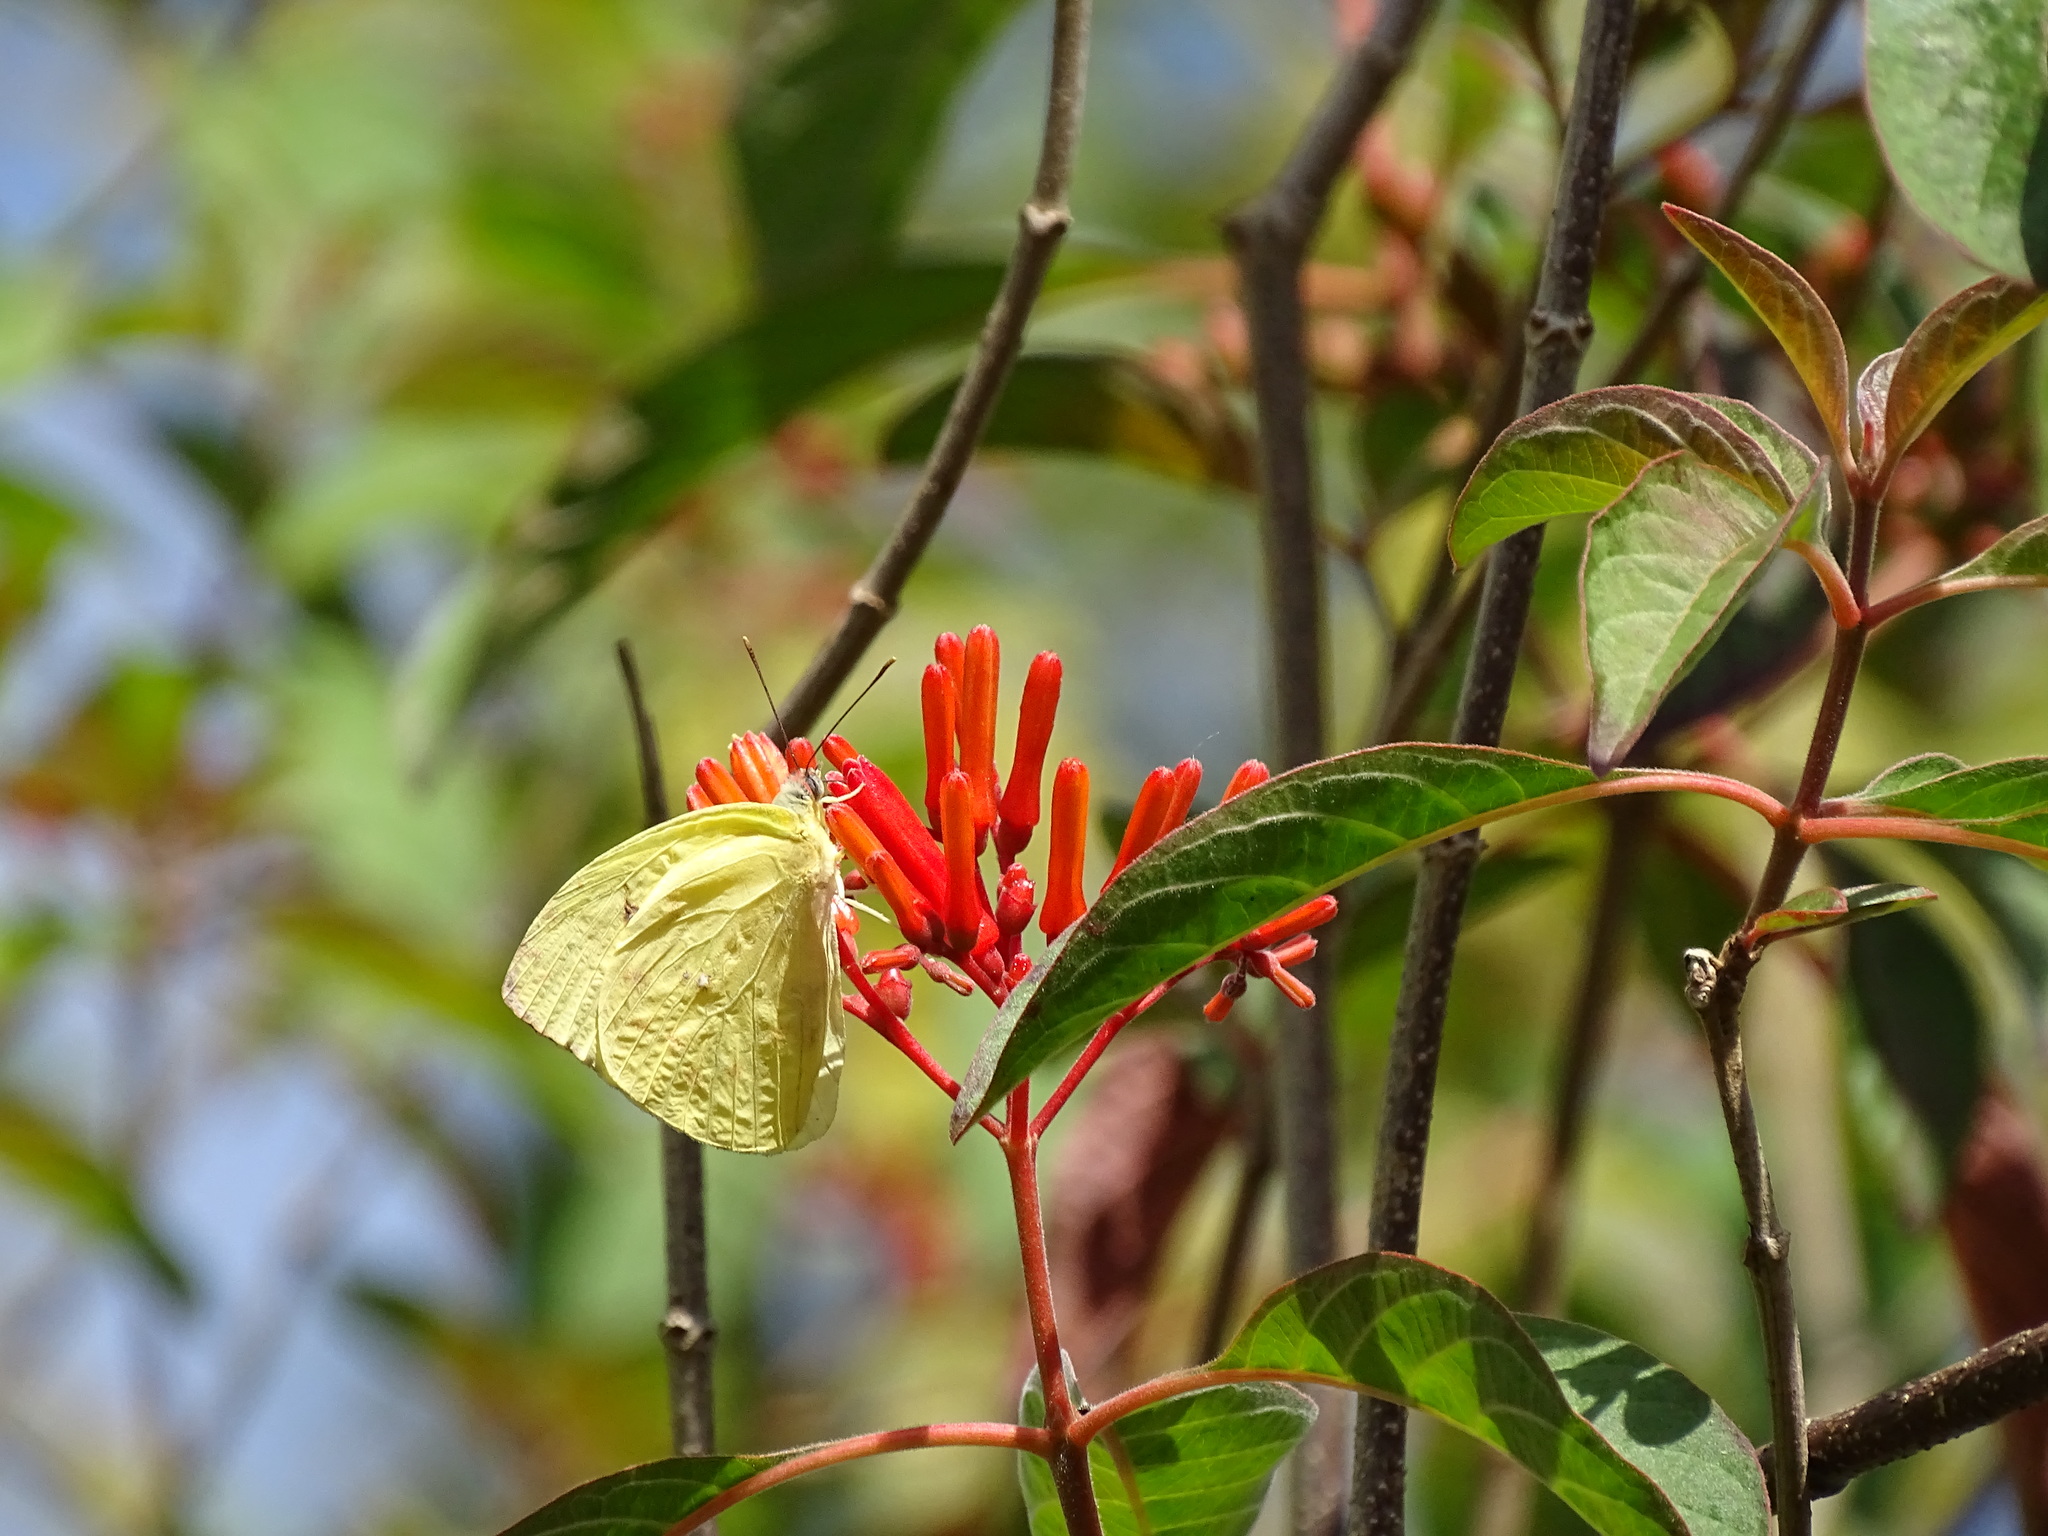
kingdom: Animalia
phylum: Arthropoda
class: Insecta
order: Lepidoptera
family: Pieridae
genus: Phoebis
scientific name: Phoebis sennae
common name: Cloudless sulphur
